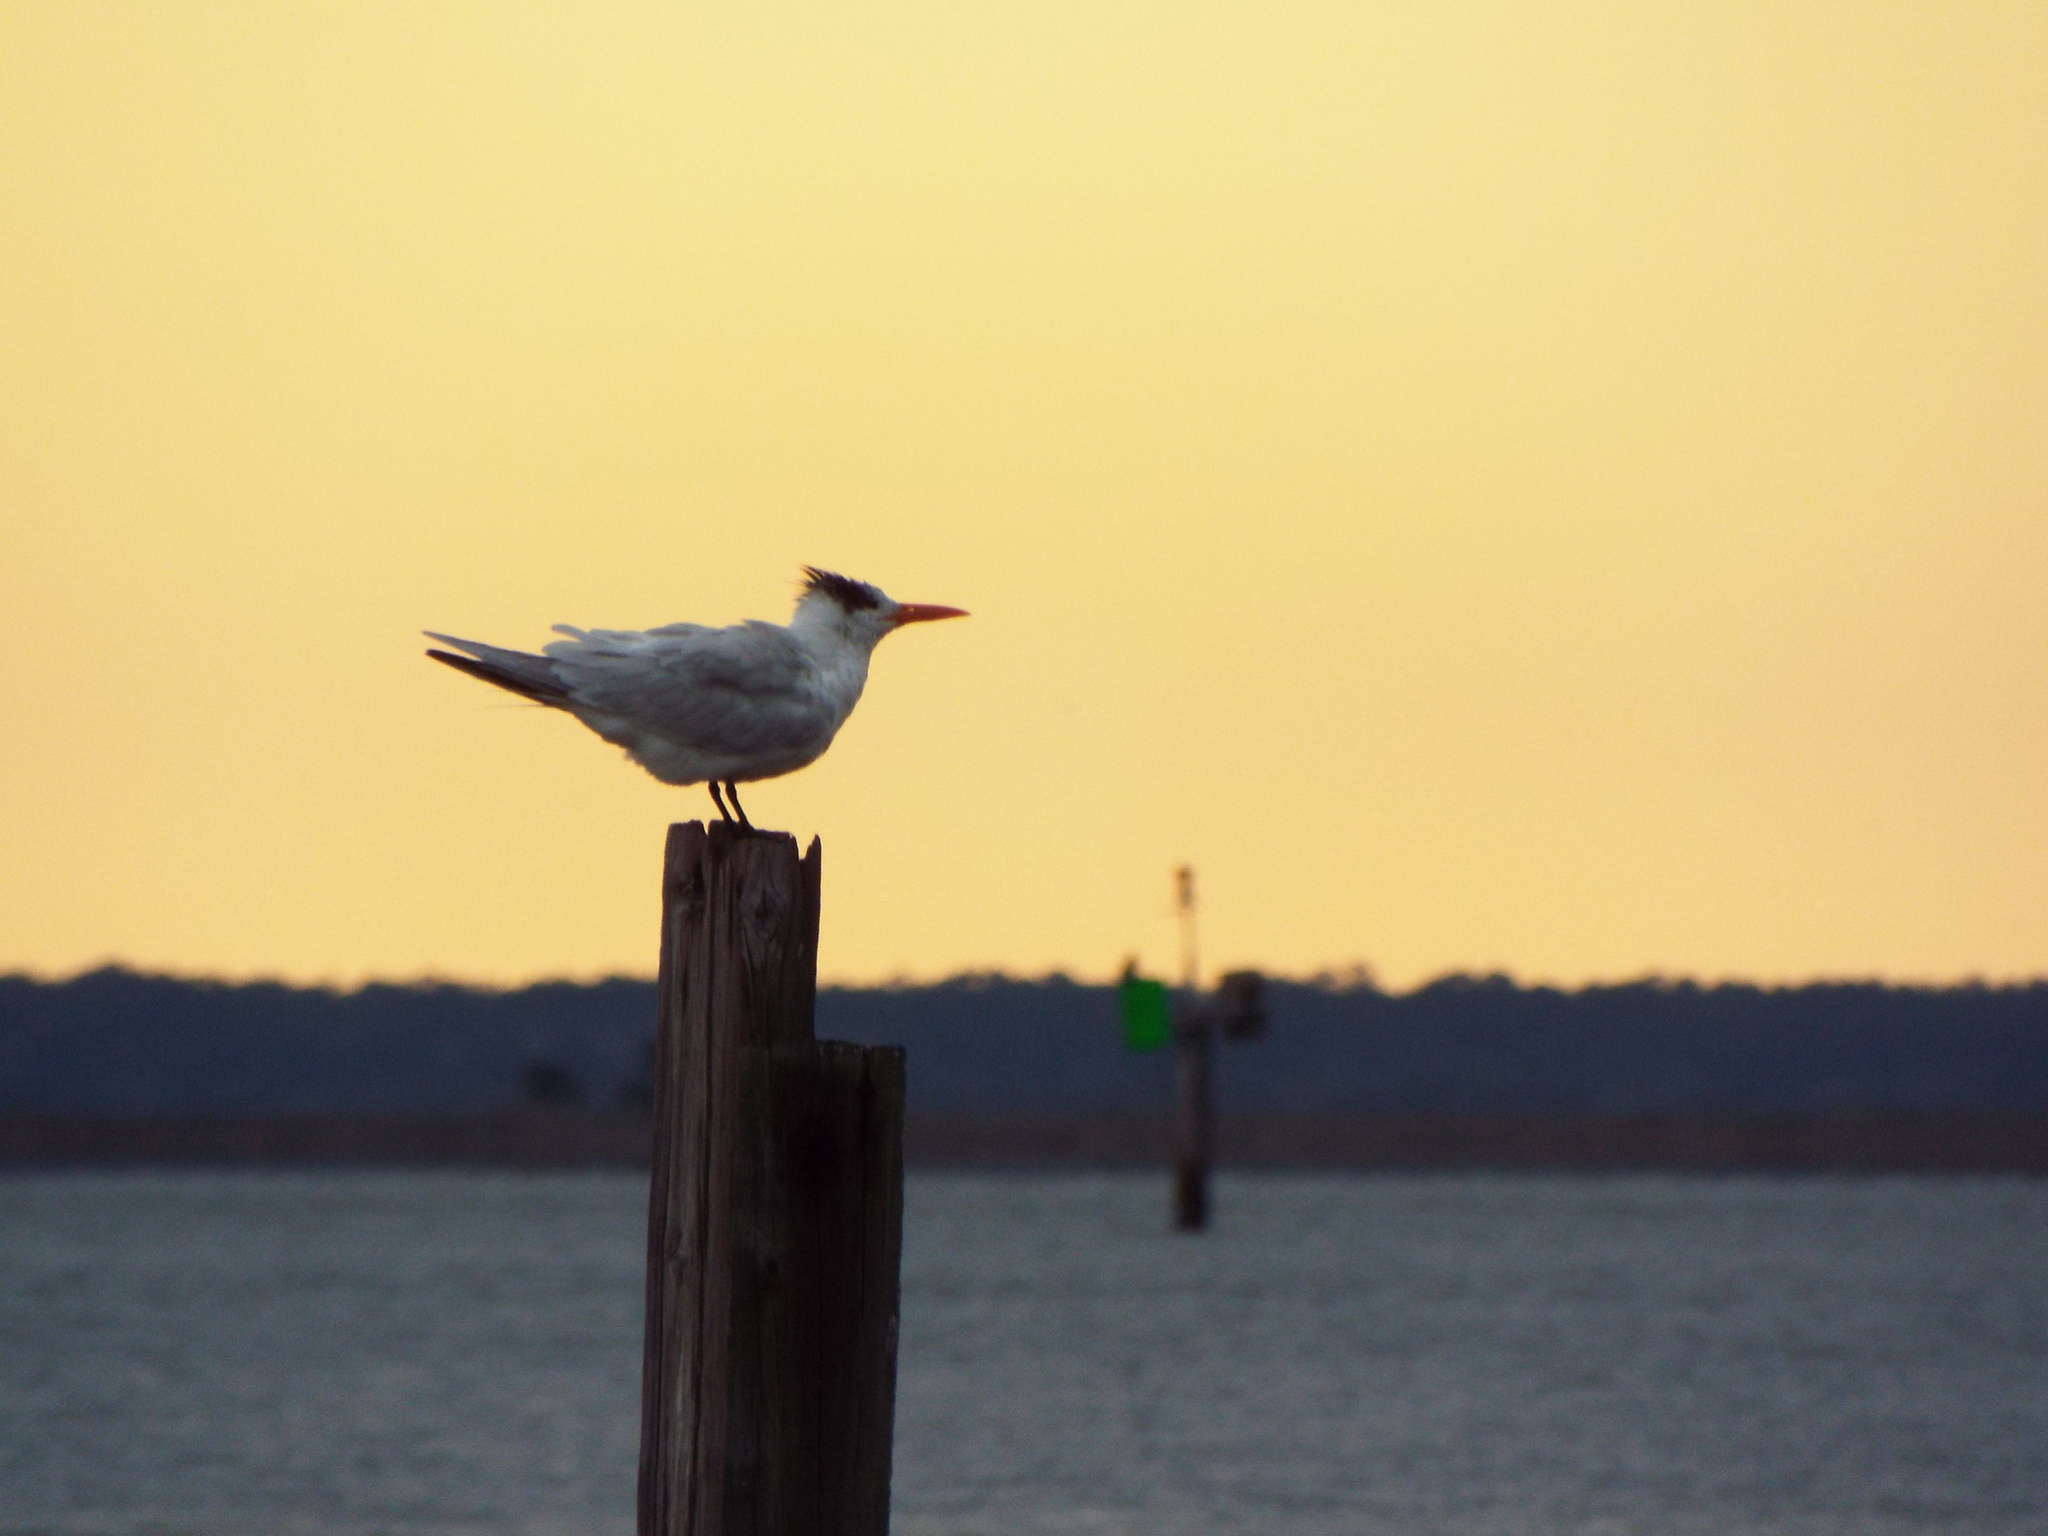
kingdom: Animalia
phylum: Chordata
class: Aves
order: Charadriiformes
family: Laridae
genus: Thalasseus
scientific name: Thalasseus maximus
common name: Royal tern
